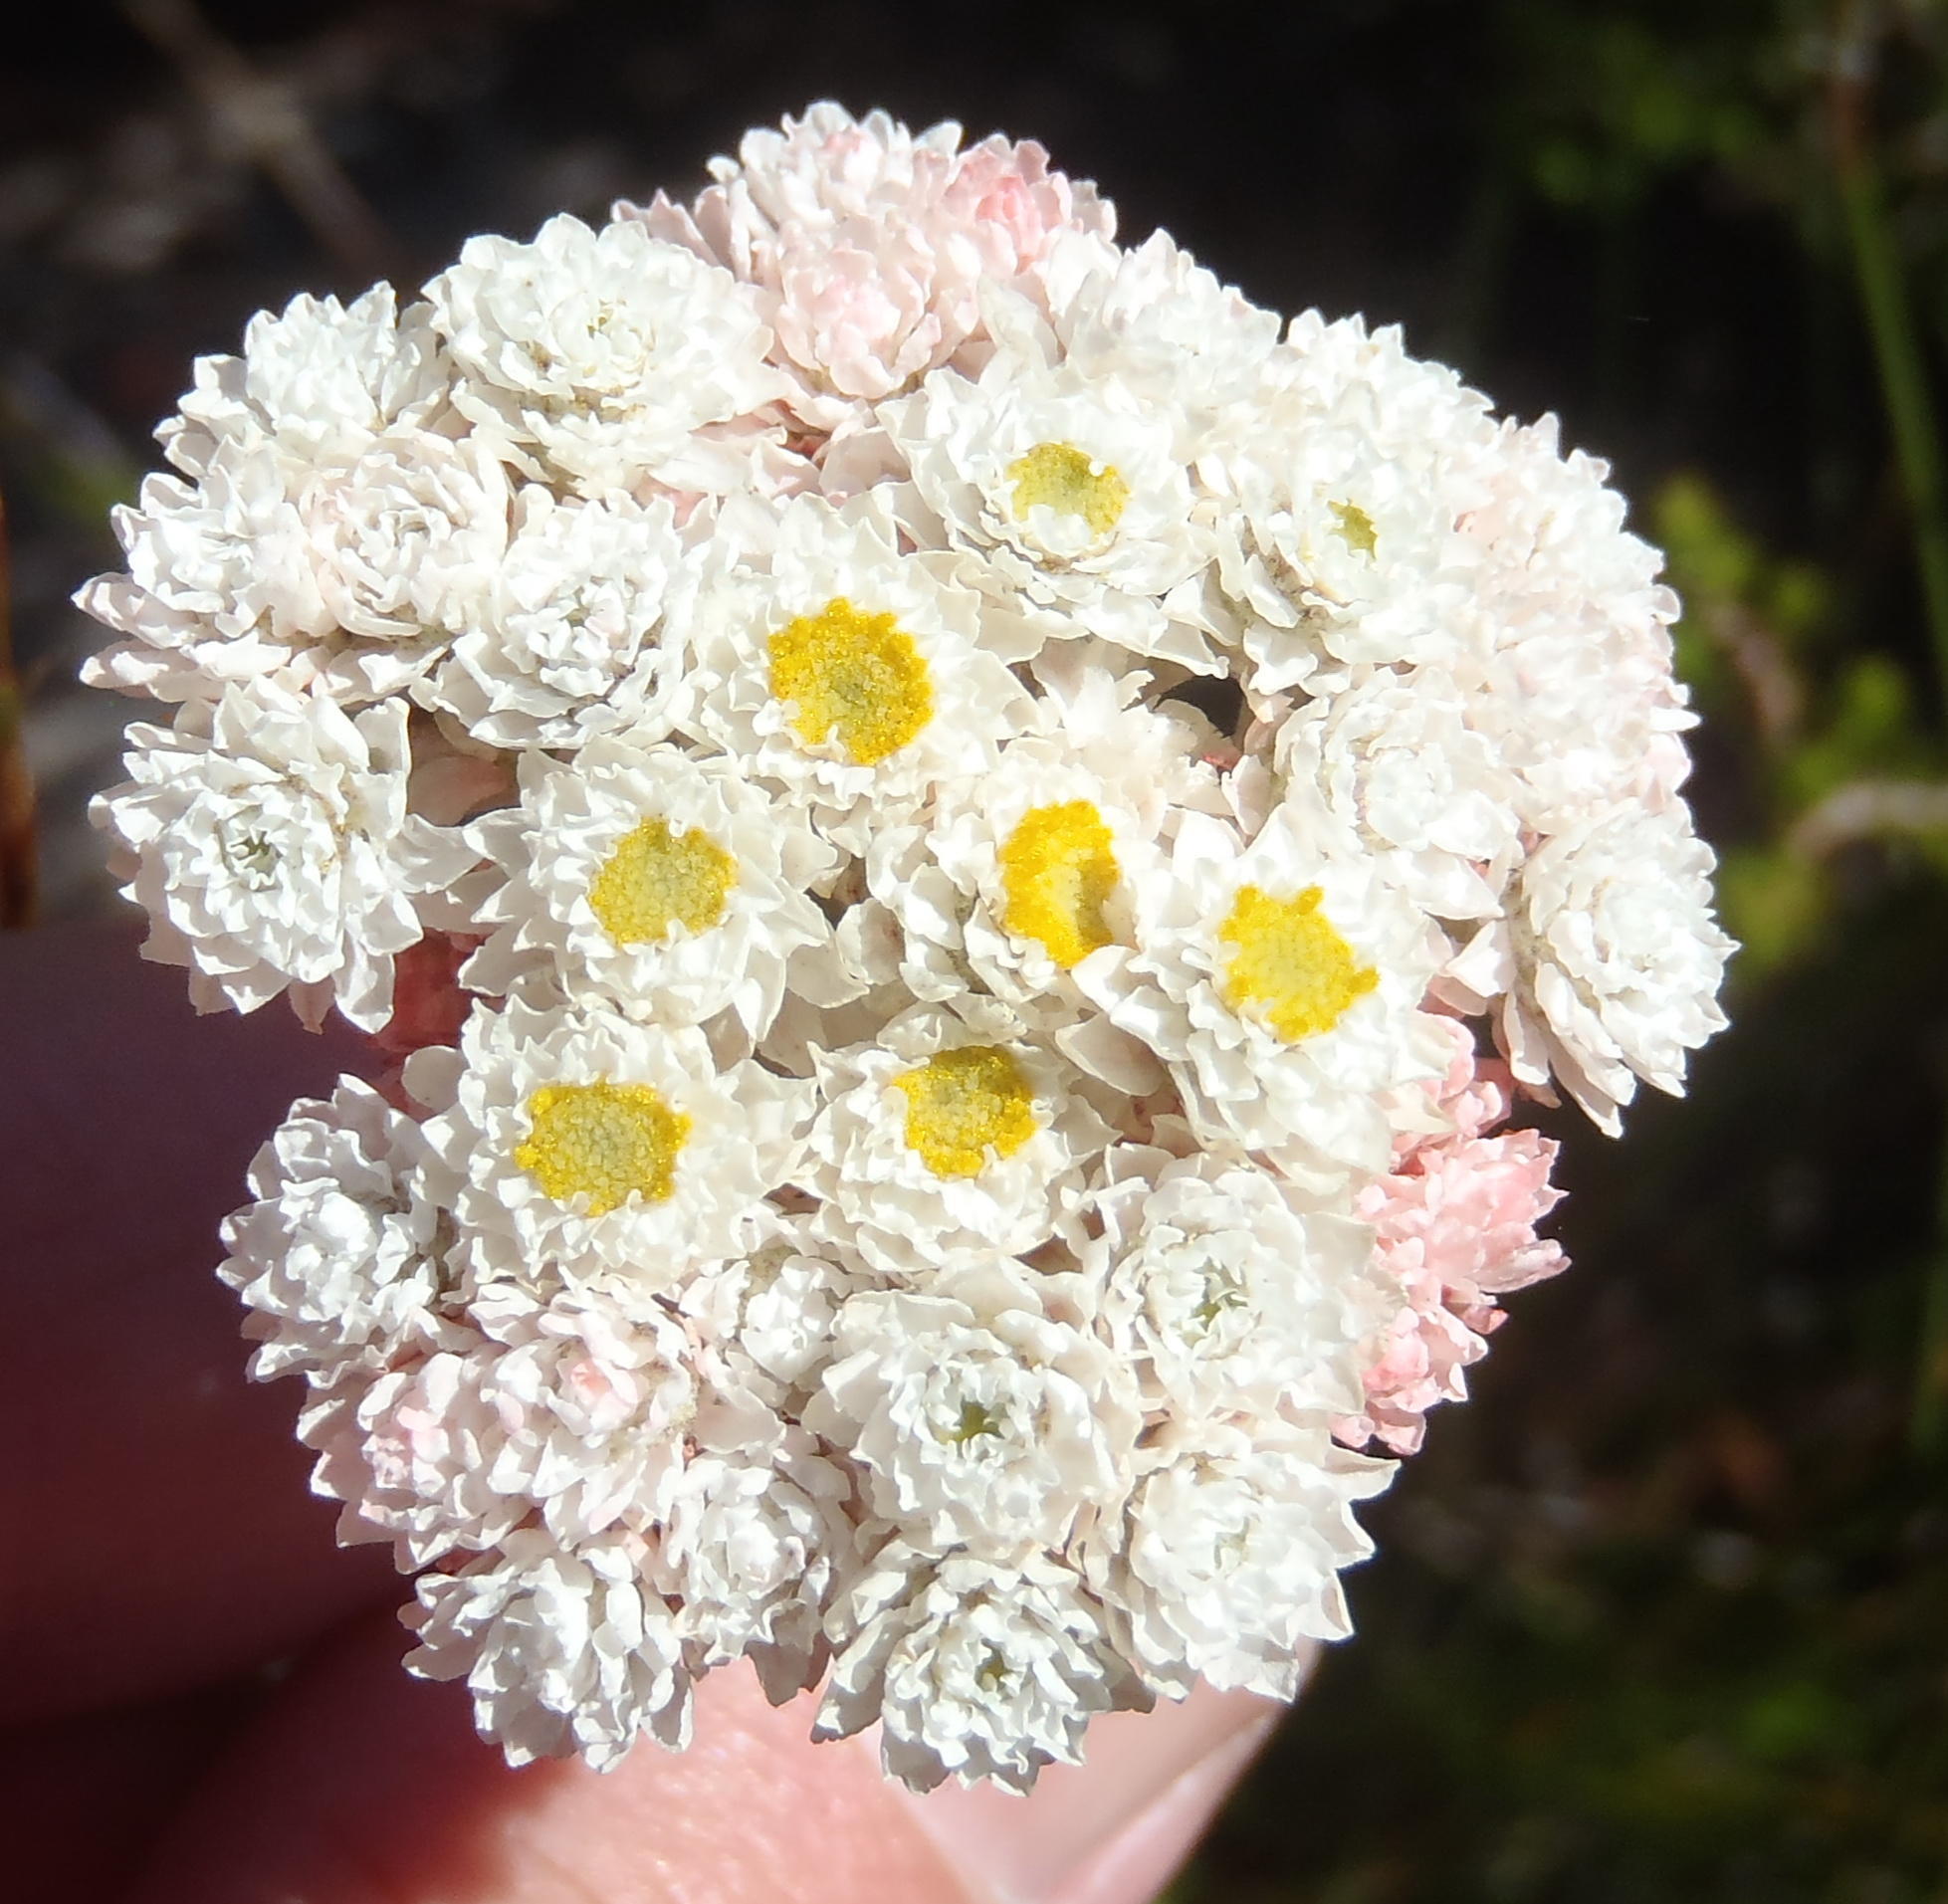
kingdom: Plantae
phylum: Tracheophyta
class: Magnoliopsida
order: Asterales
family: Asteraceae
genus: Helichrysum
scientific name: Helichrysum felinum
